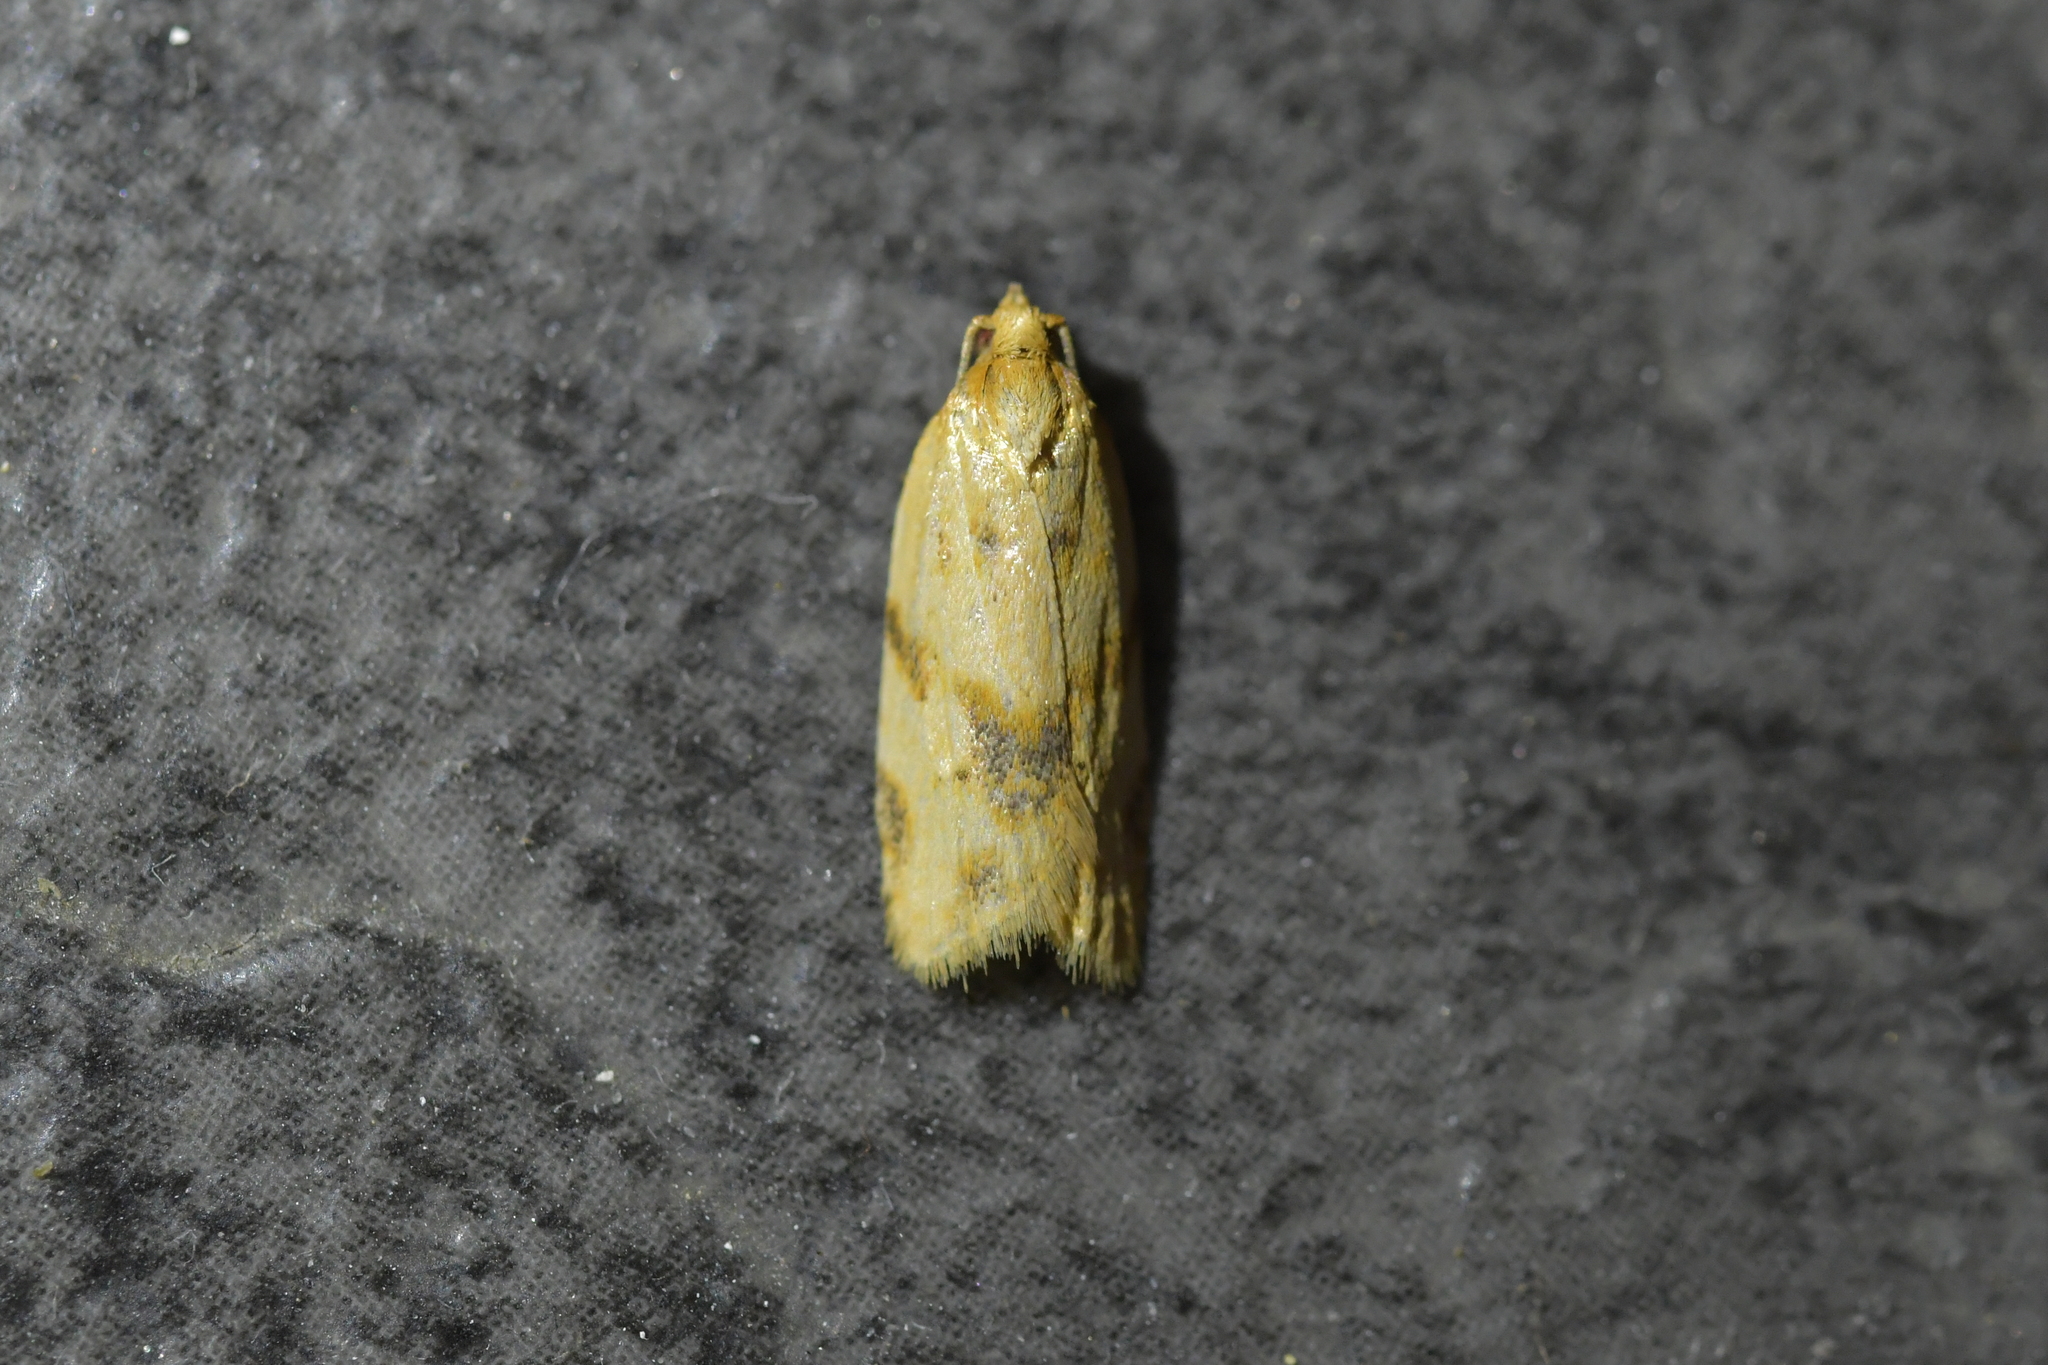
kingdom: Animalia
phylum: Arthropoda
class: Insecta
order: Lepidoptera
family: Tortricidae
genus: Clepsis
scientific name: Clepsis
